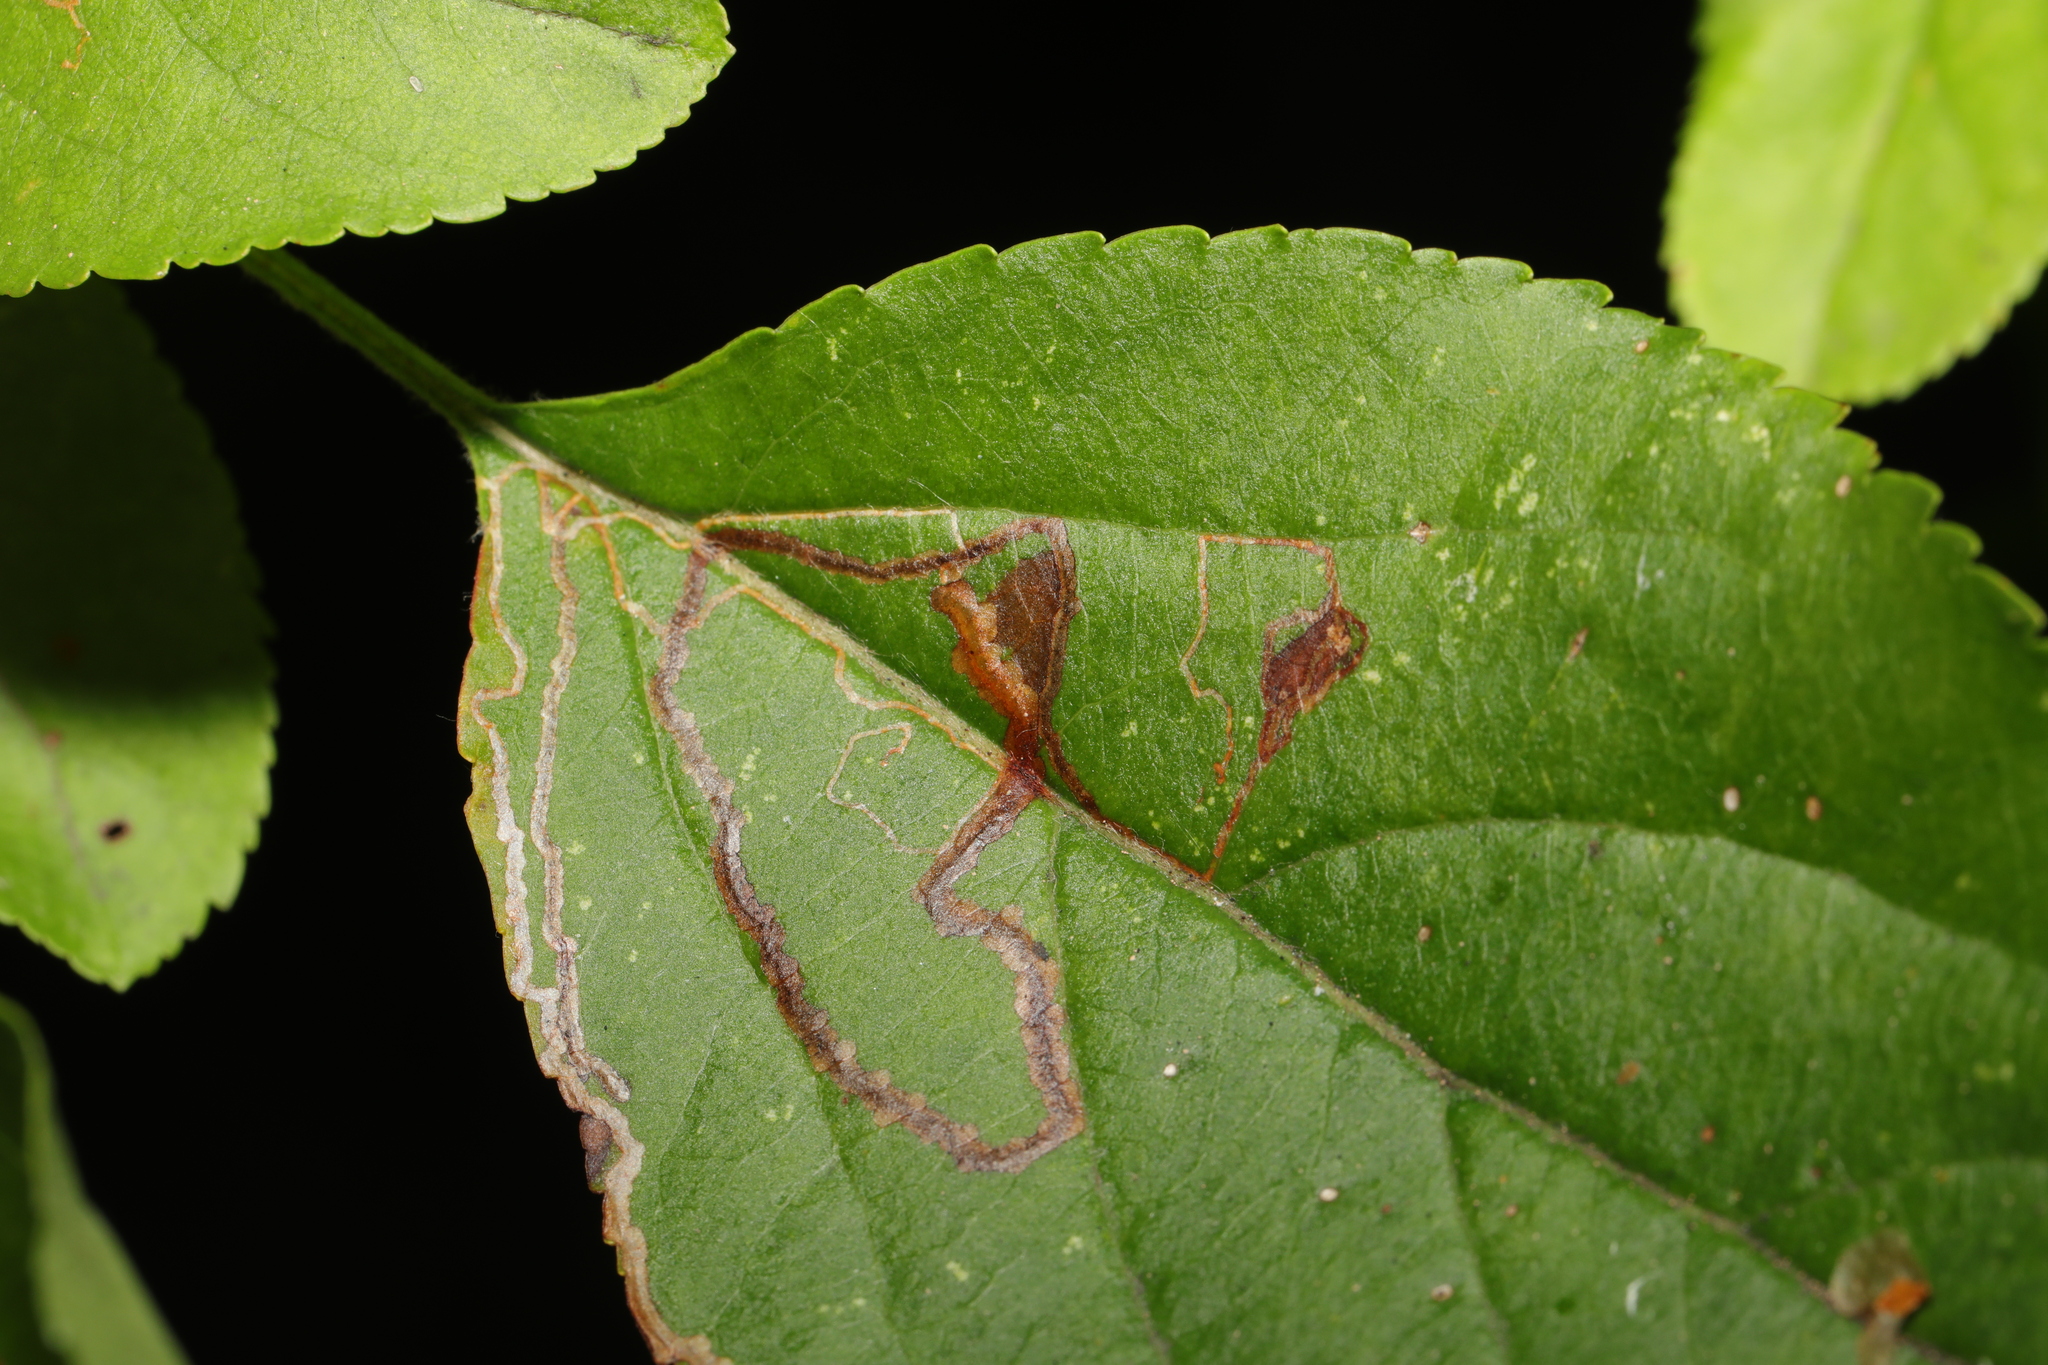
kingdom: Animalia
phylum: Arthropoda
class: Insecta
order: Lepidoptera
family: Lyonetiidae
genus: Lyonetia
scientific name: Lyonetia clerkella
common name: Apple leaf miner
